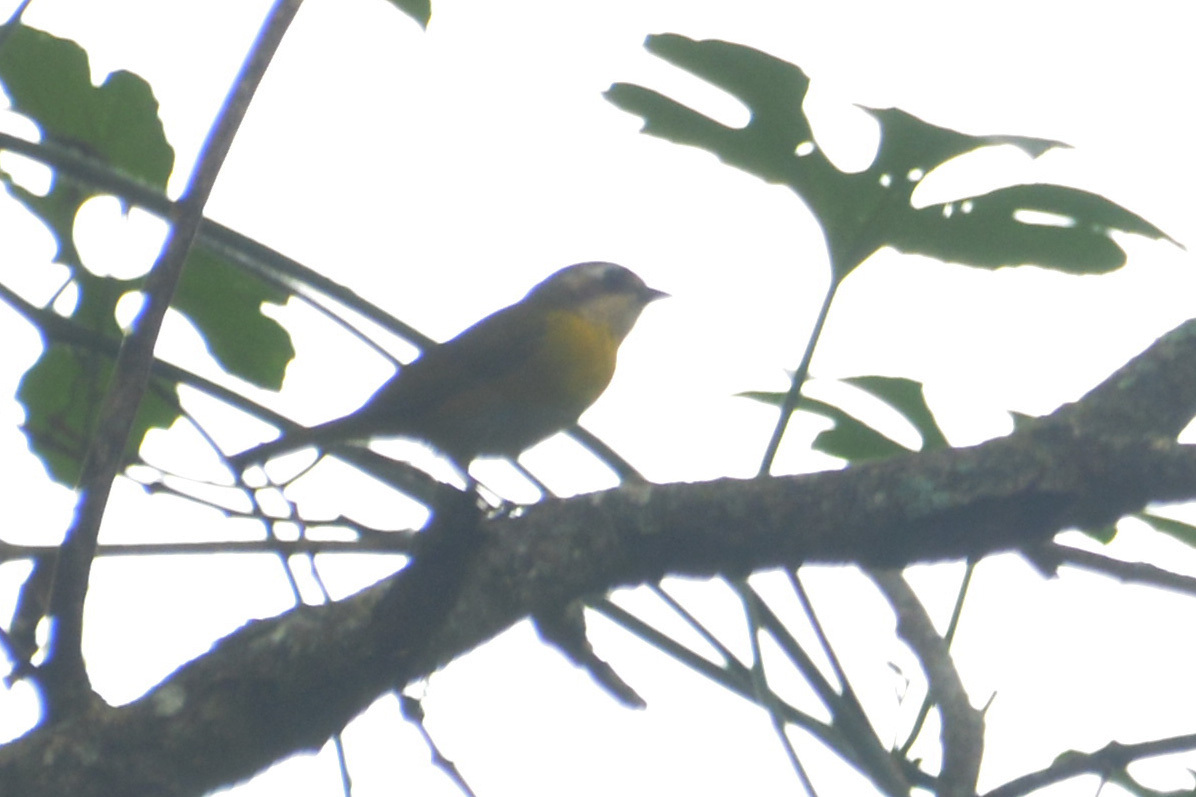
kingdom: Animalia
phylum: Chordata
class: Aves
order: Passeriformes
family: Passerellidae
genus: Chlorospingus
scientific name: Chlorospingus flavopectus
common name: Common chlorospingus
